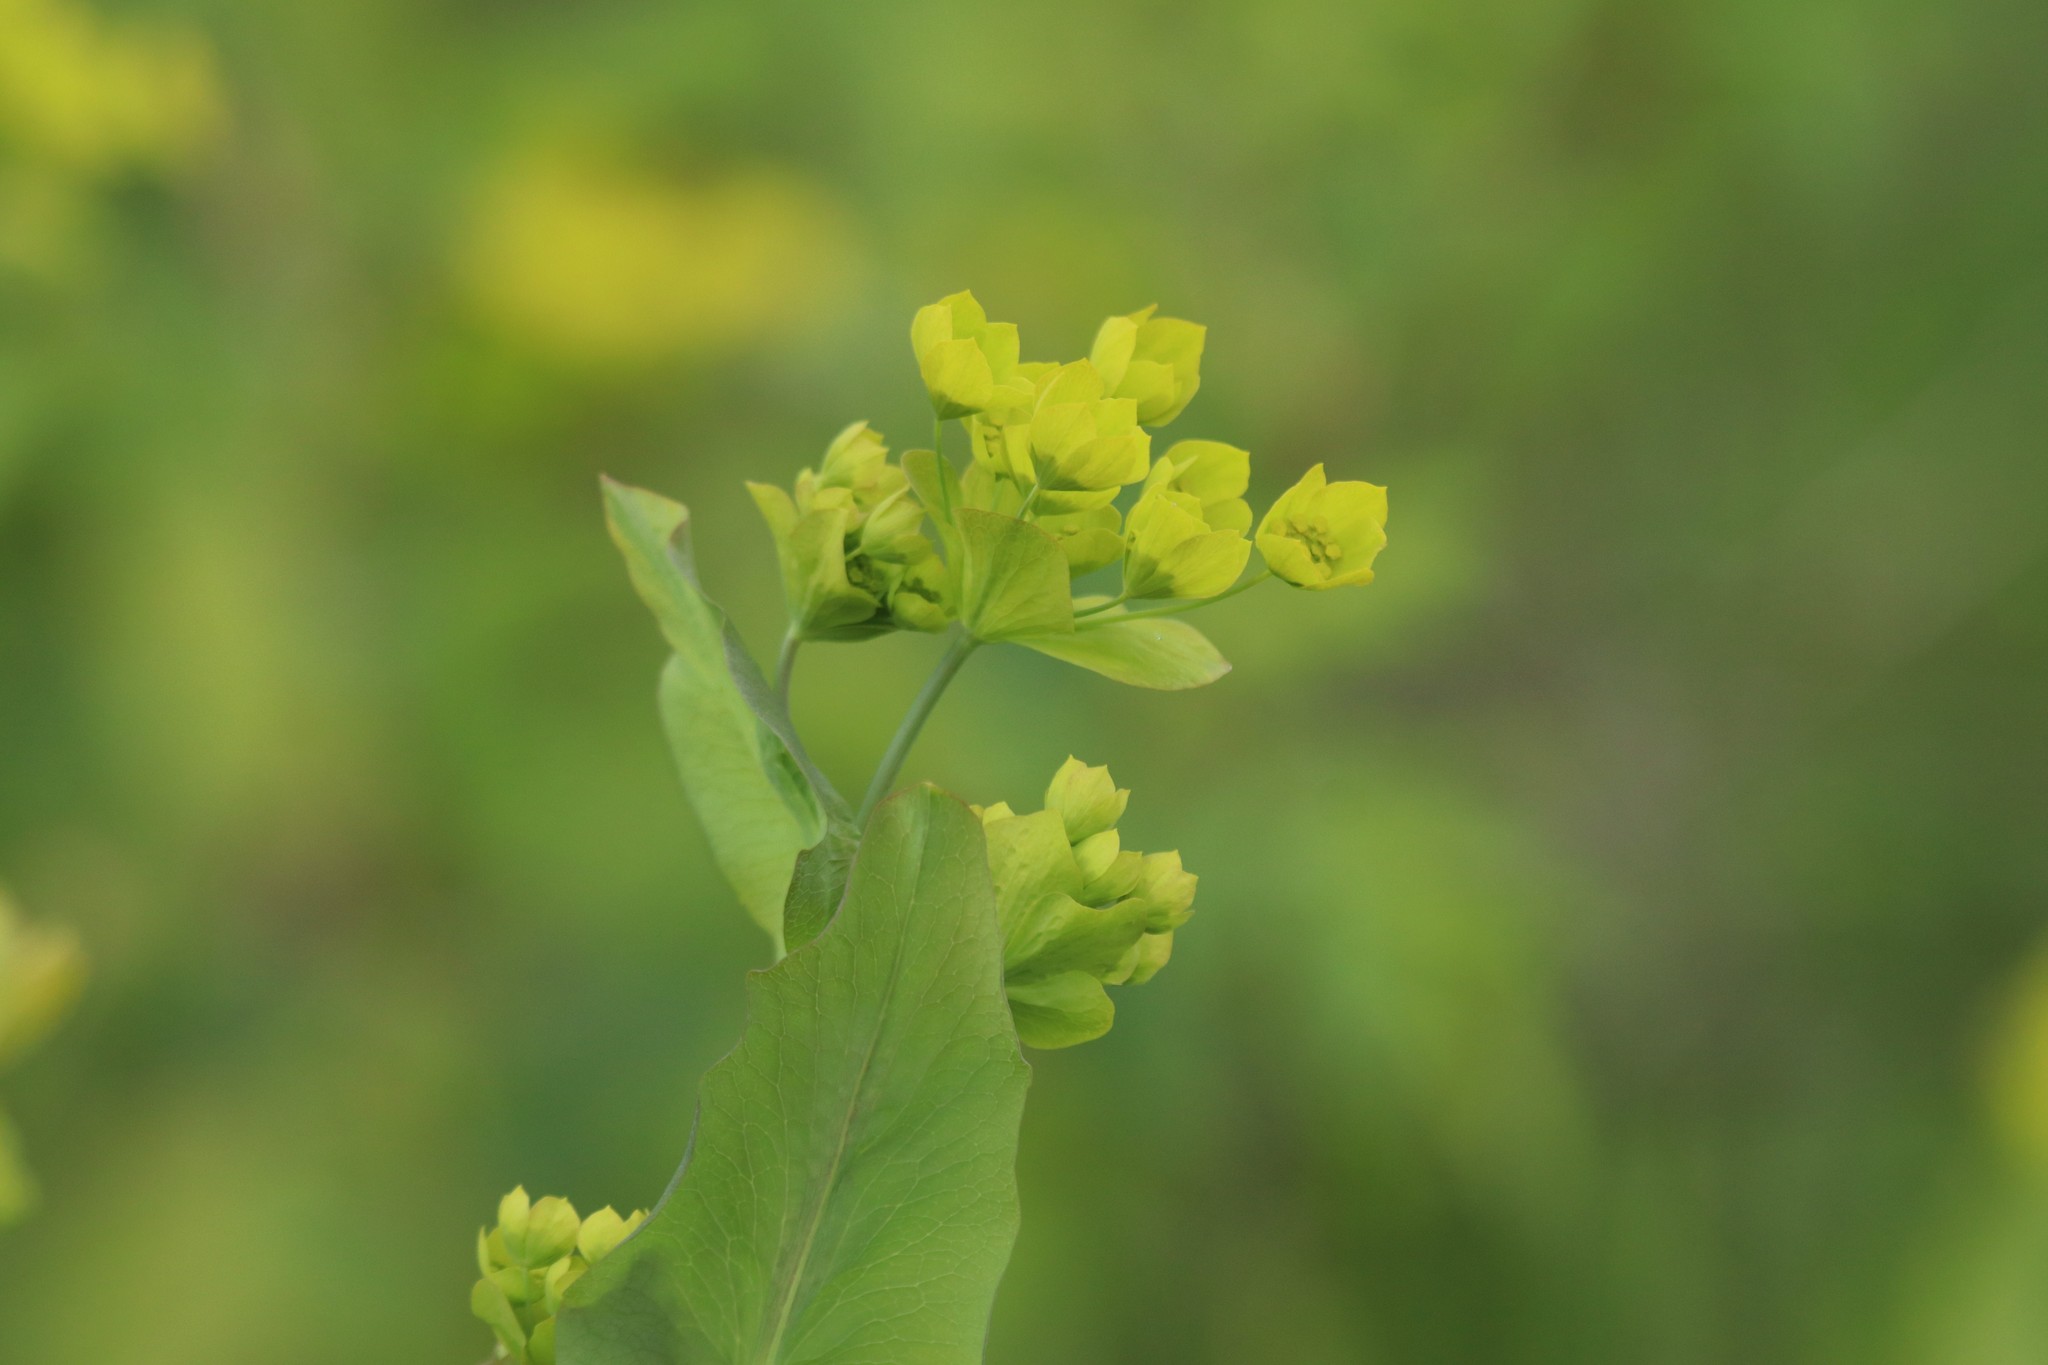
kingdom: Plantae
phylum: Tracheophyta
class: Magnoliopsida
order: Apiales
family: Apiaceae
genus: Bupleurum
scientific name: Bupleurum aureum
